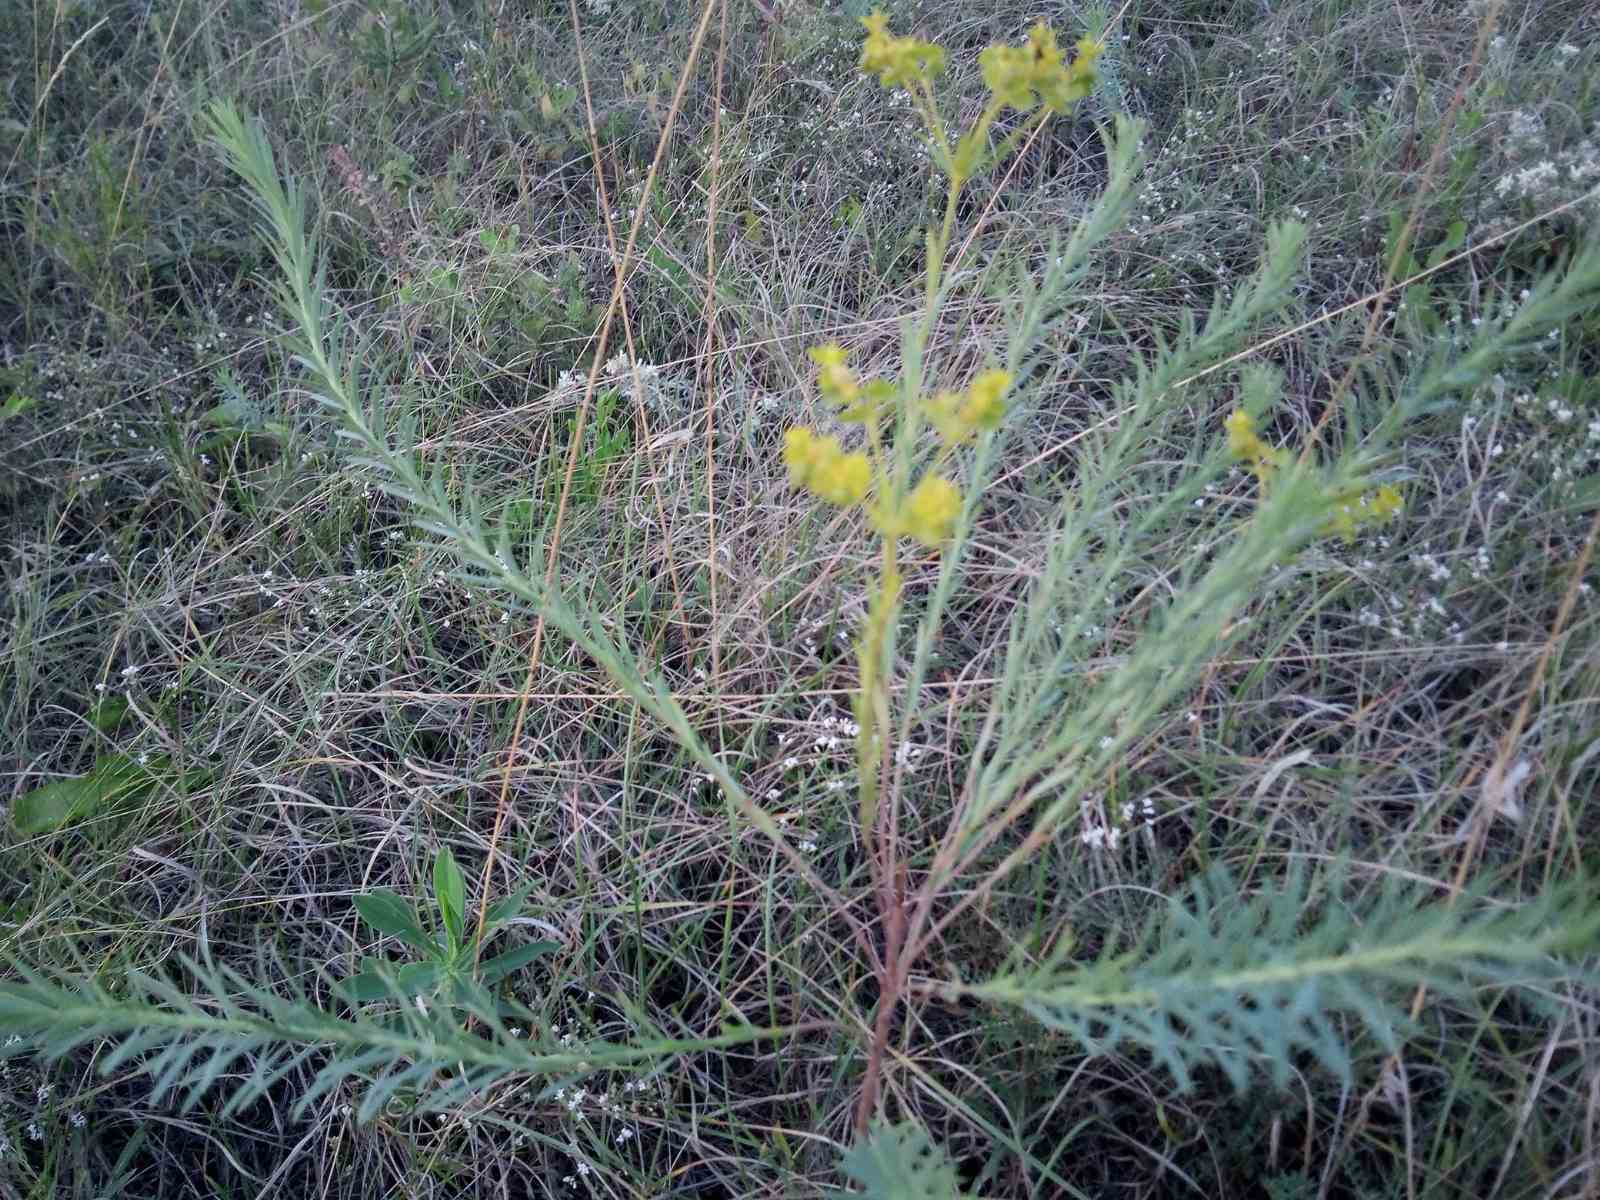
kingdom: Plantae
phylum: Tracheophyta
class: Magnoliopsida
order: Malpighiales
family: Euphorbiaceae
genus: Euphorbia
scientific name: Euphorbia seguieriana
